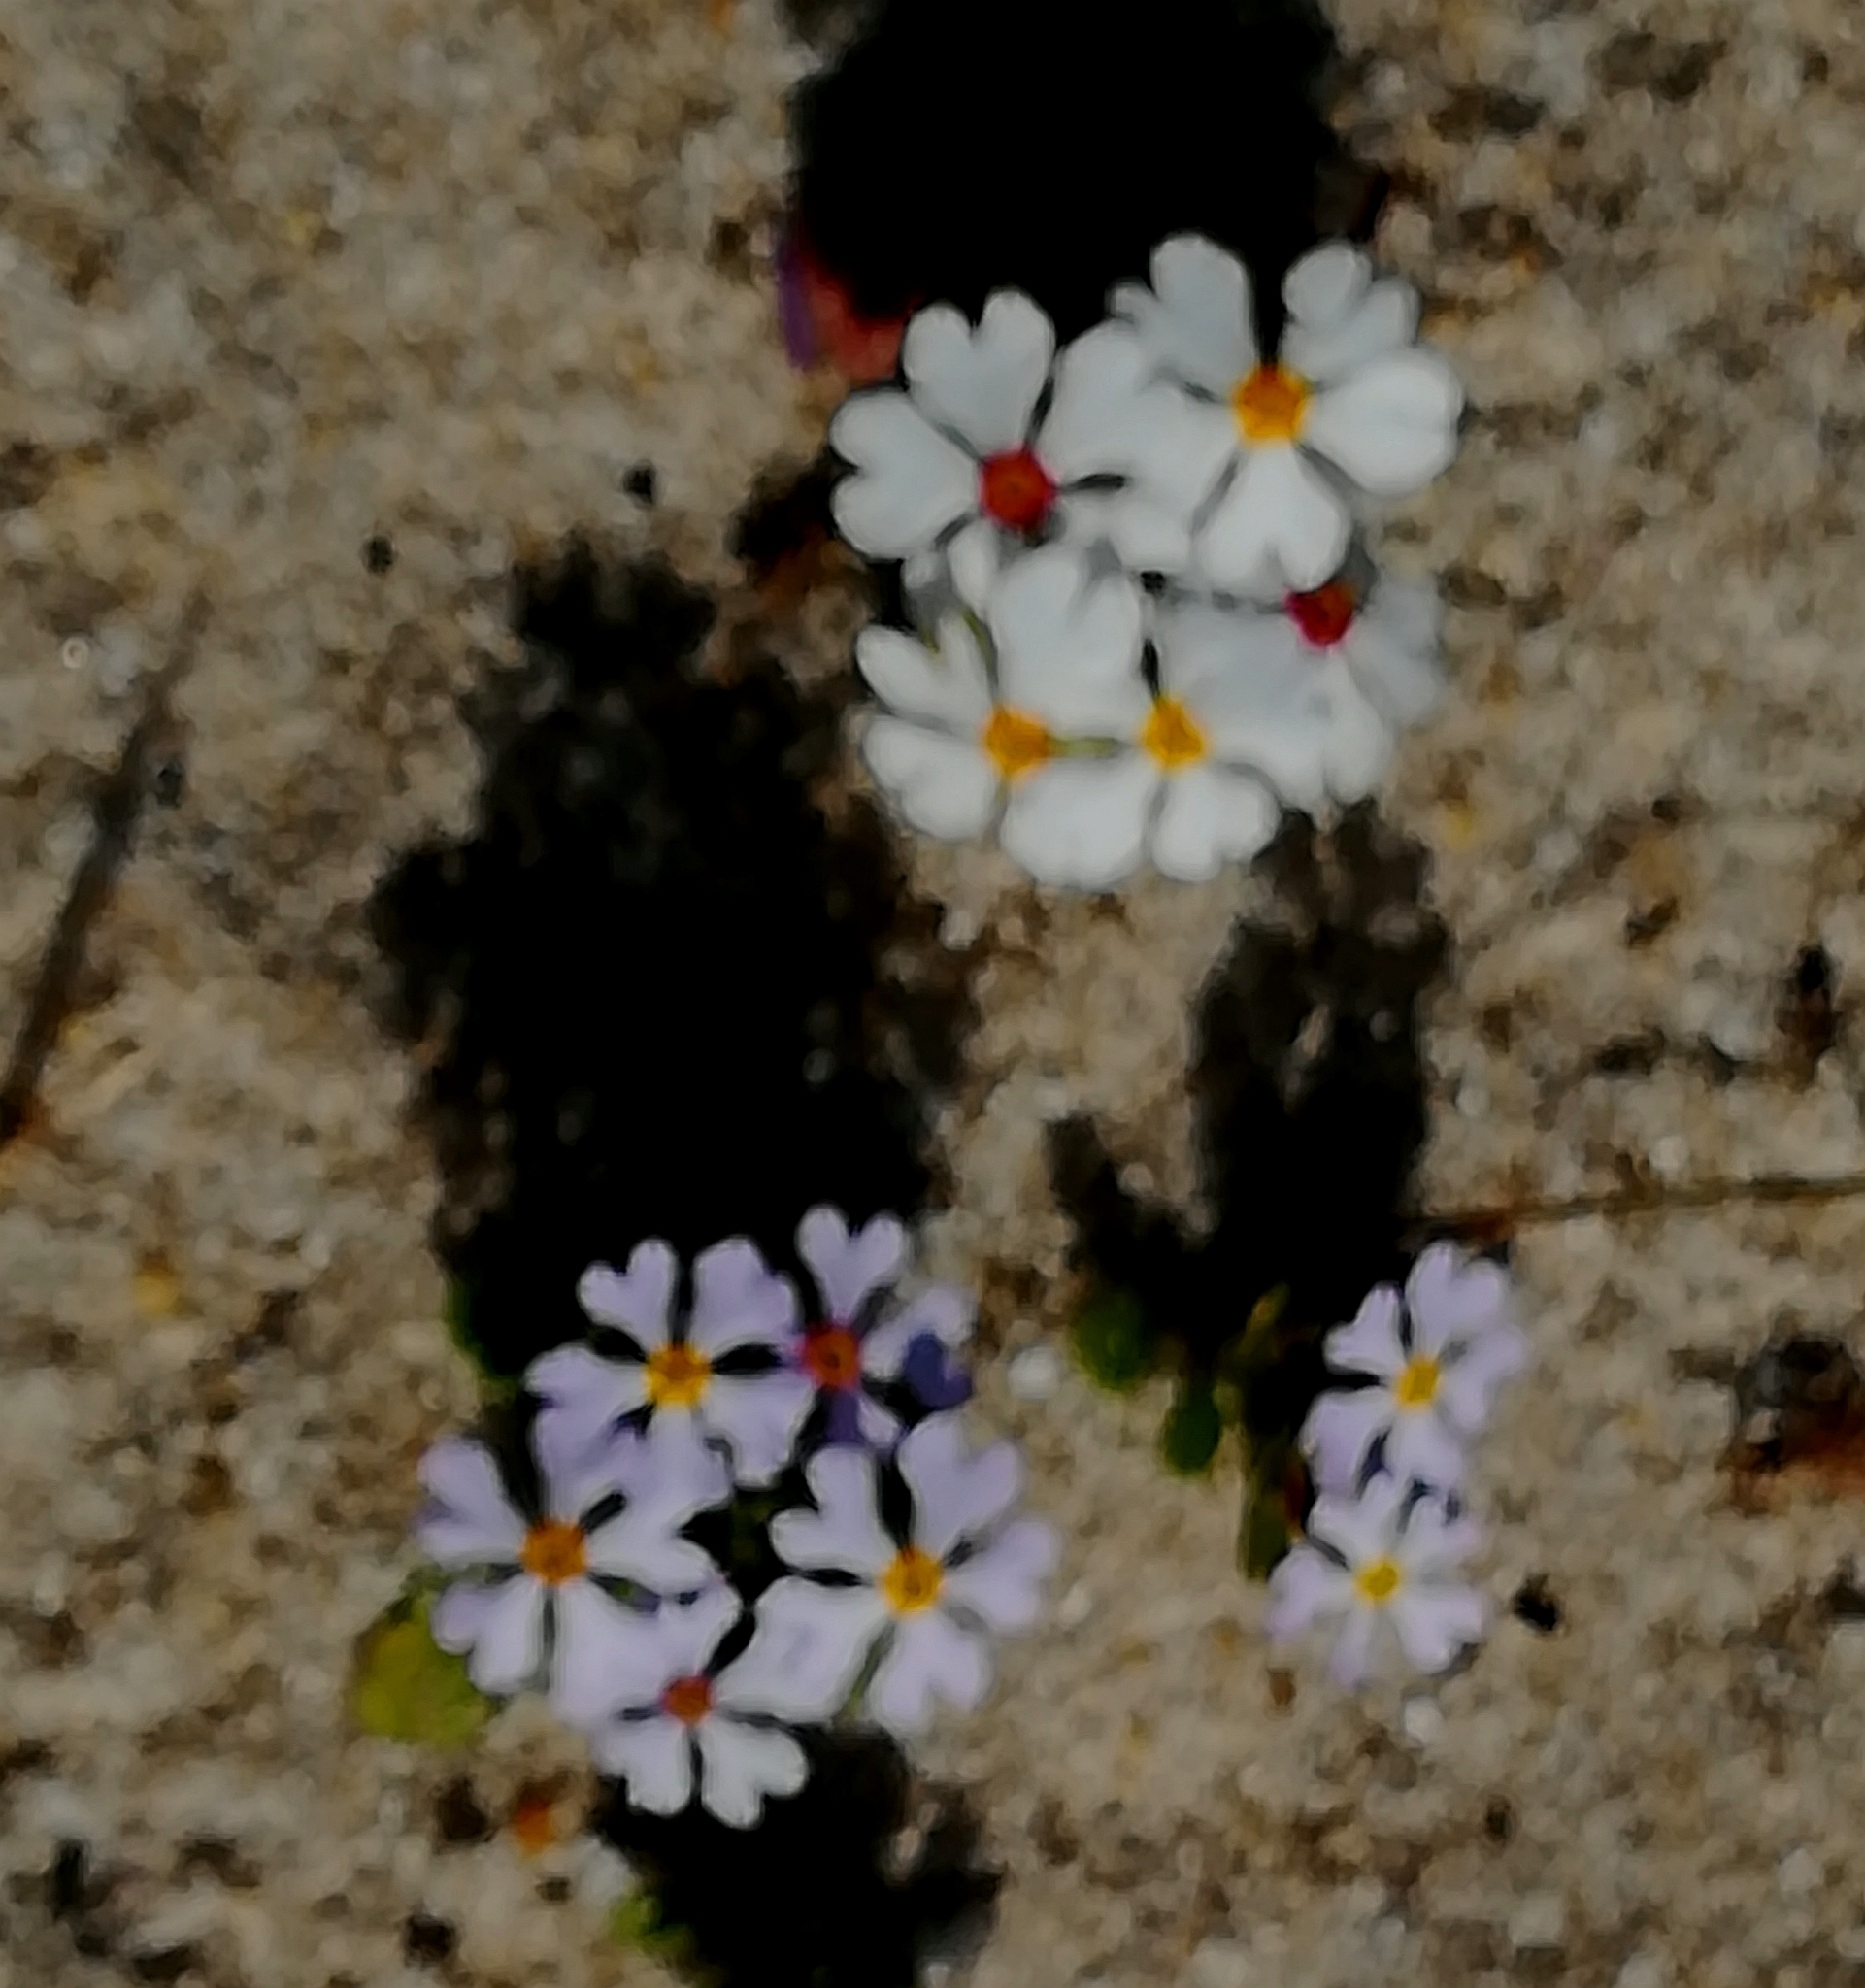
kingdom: Plantae
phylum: Tracheophyta
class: Magnoliopsida
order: Lamiales
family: Scrophulariaceae
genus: Zaluzianskya
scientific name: Zaluzianskya villosa
